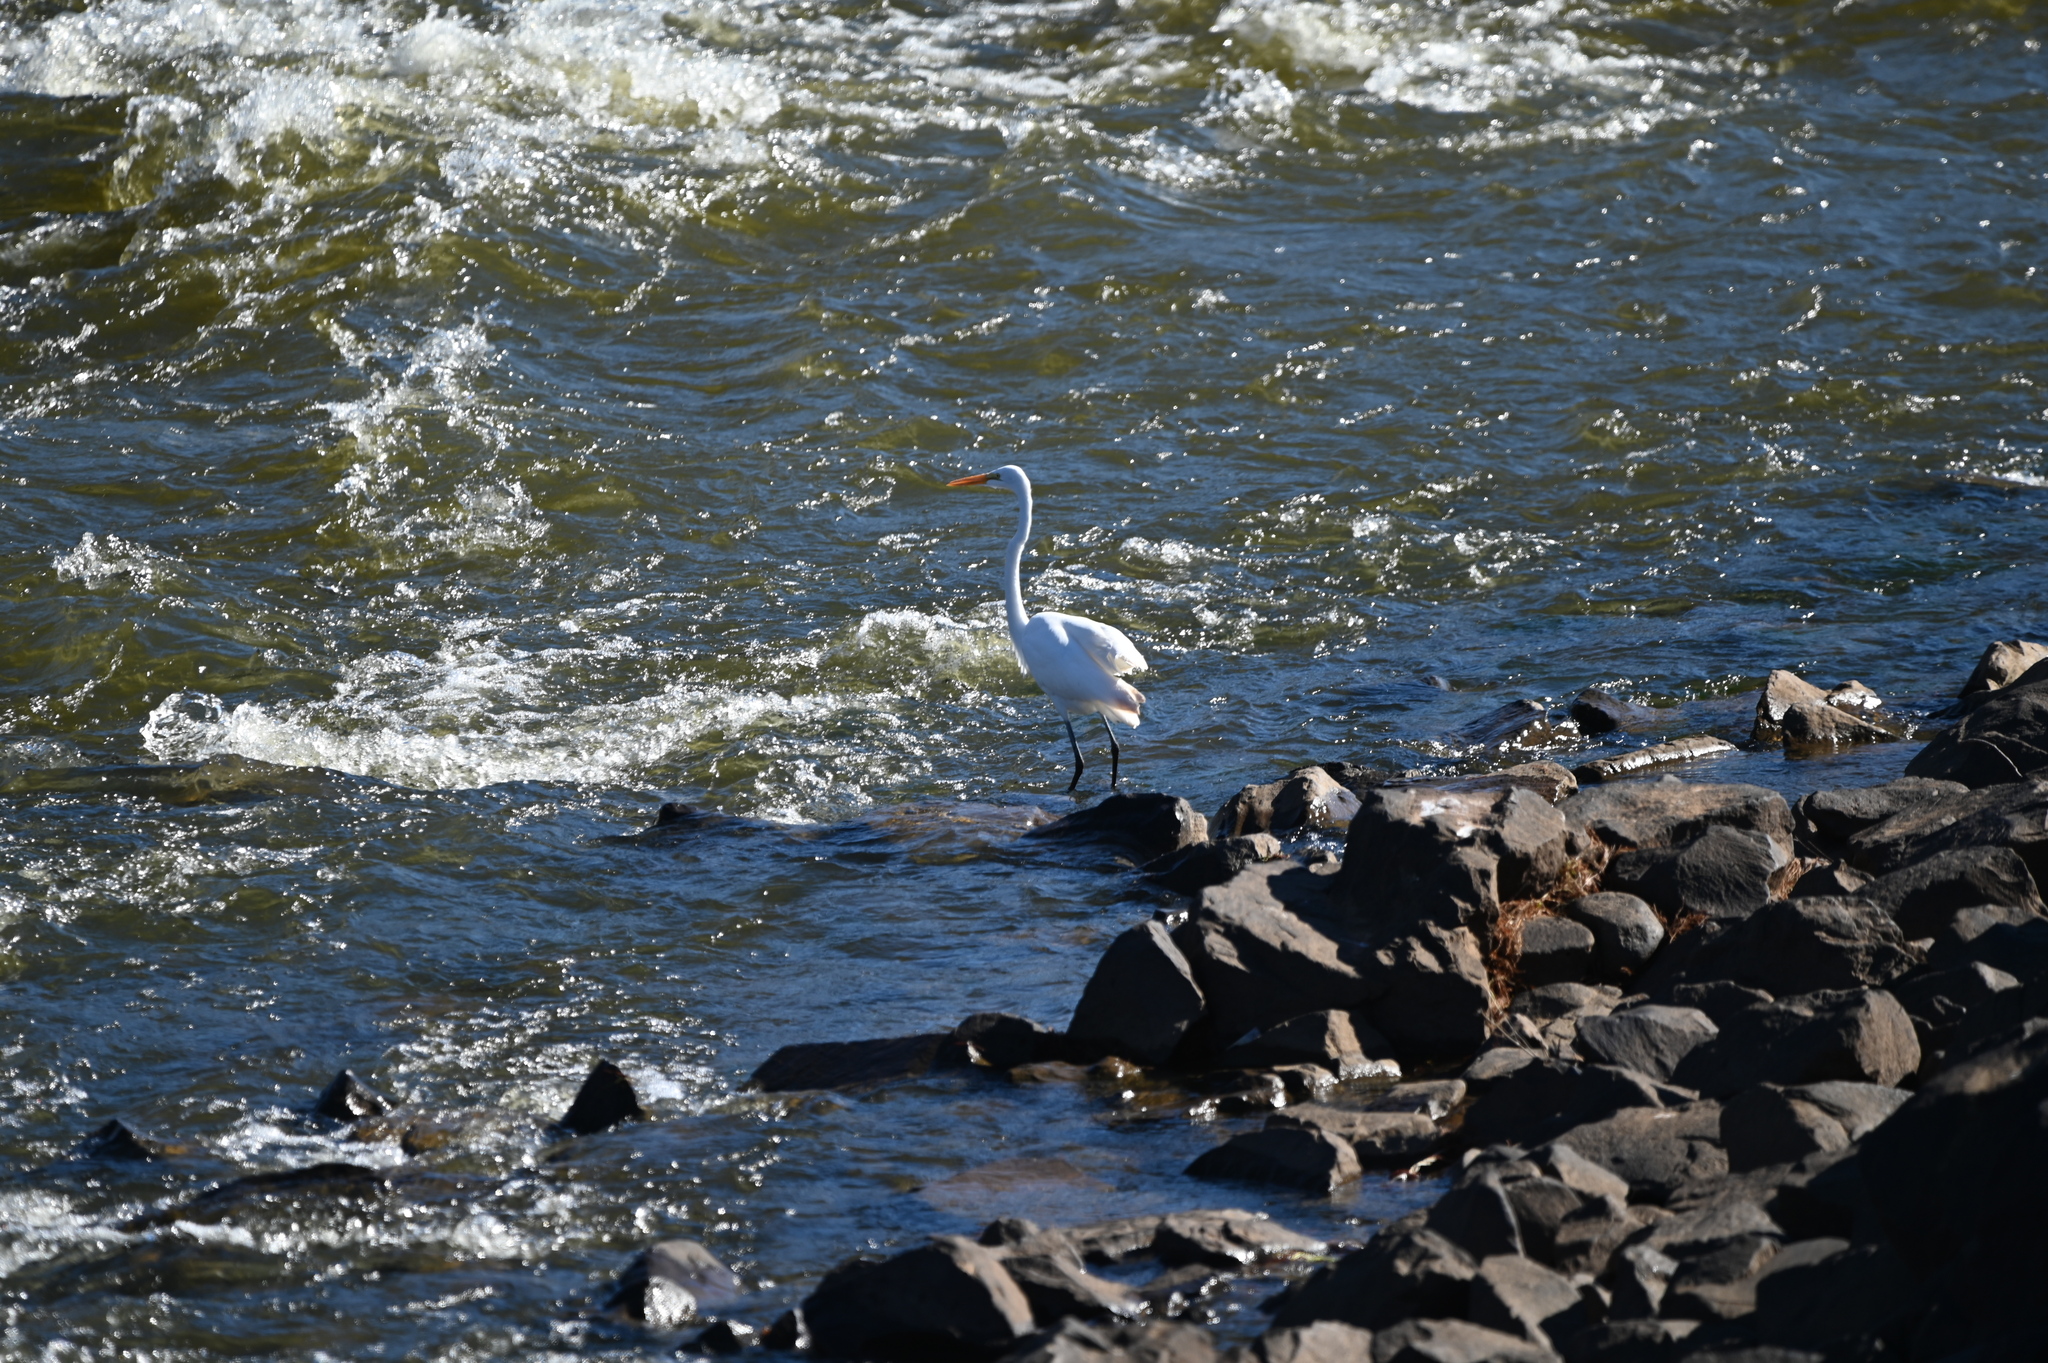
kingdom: Animalia
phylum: Chordata
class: Aves
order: Pelecaniformes
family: Ardeidae
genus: Ardea
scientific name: Ardea alba
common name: Great egret
